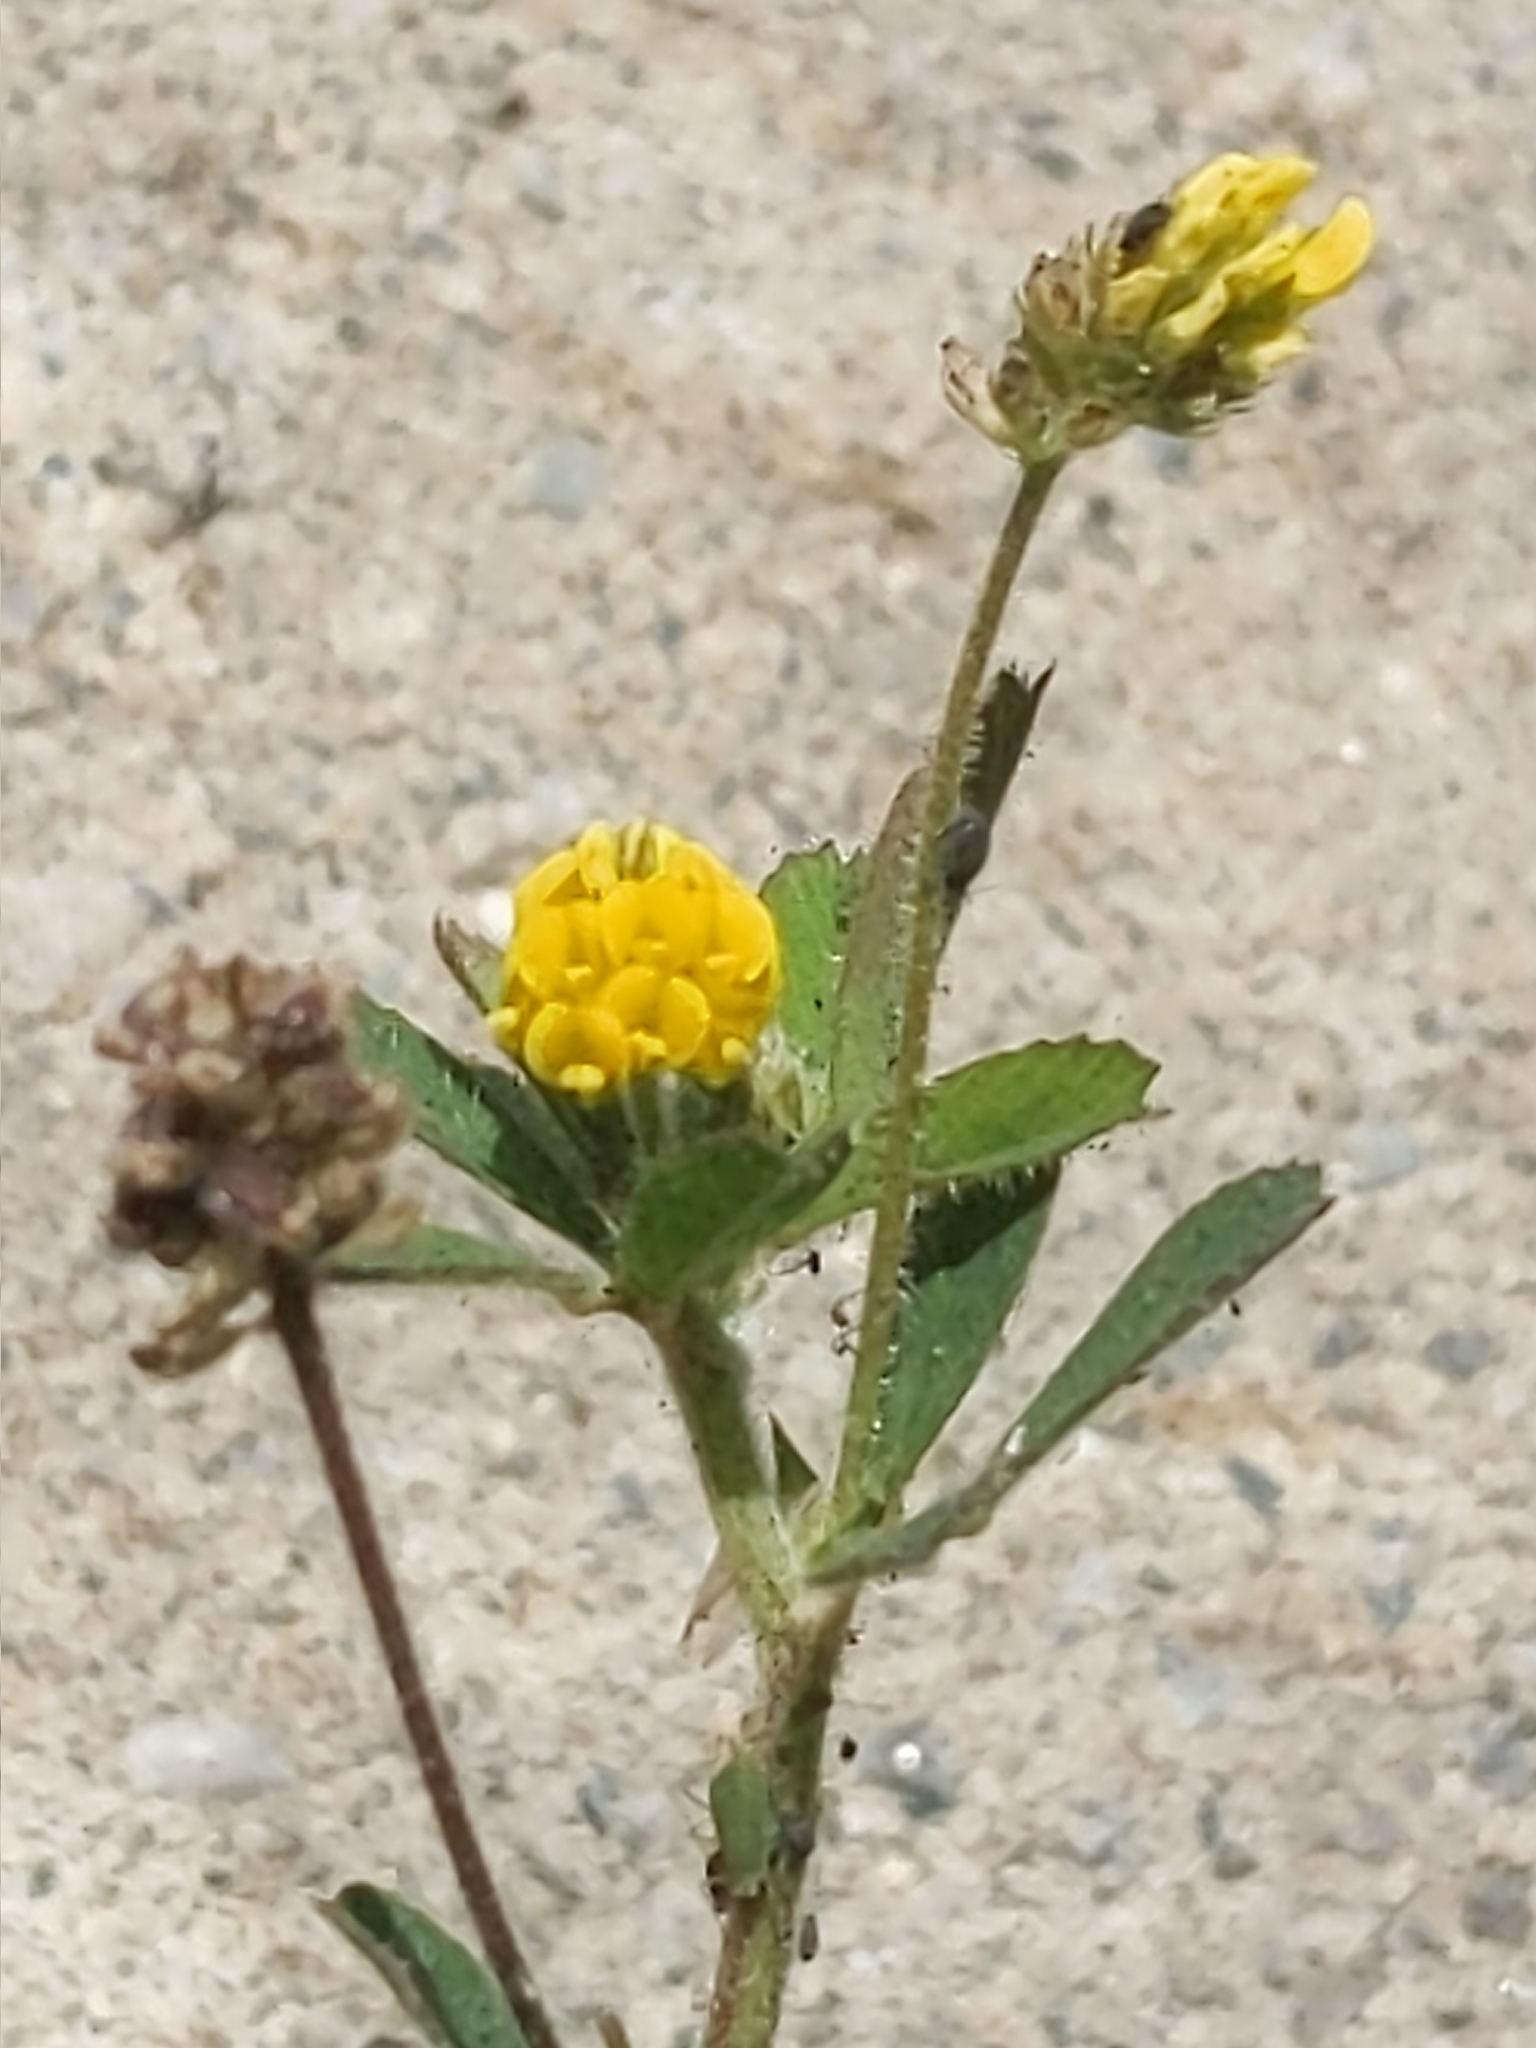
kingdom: Plantae
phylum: Tracheophyta
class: Magnoliopsida
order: Fabales
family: Fabaceae
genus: Medicago
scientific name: Medicago lupulina
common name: Black medick
